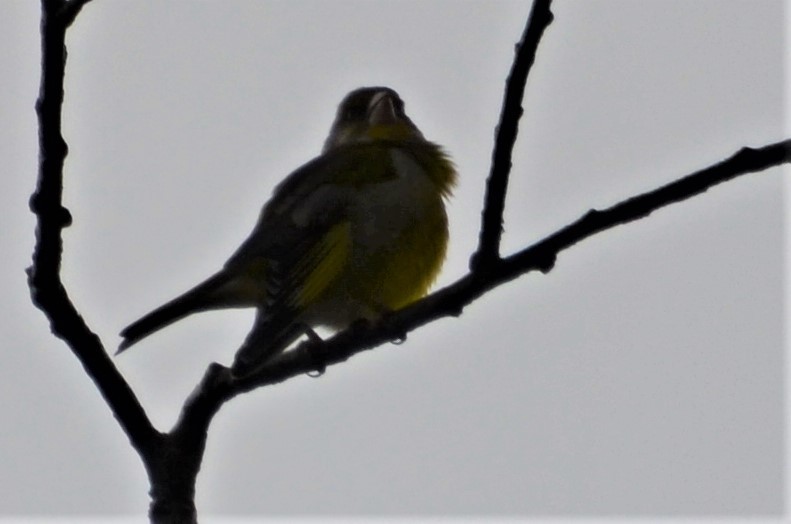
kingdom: Plantae
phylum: Tracheophyta
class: Liliopsida
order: Poales
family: Poaceae
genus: Chloris
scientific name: Chloris chloris
